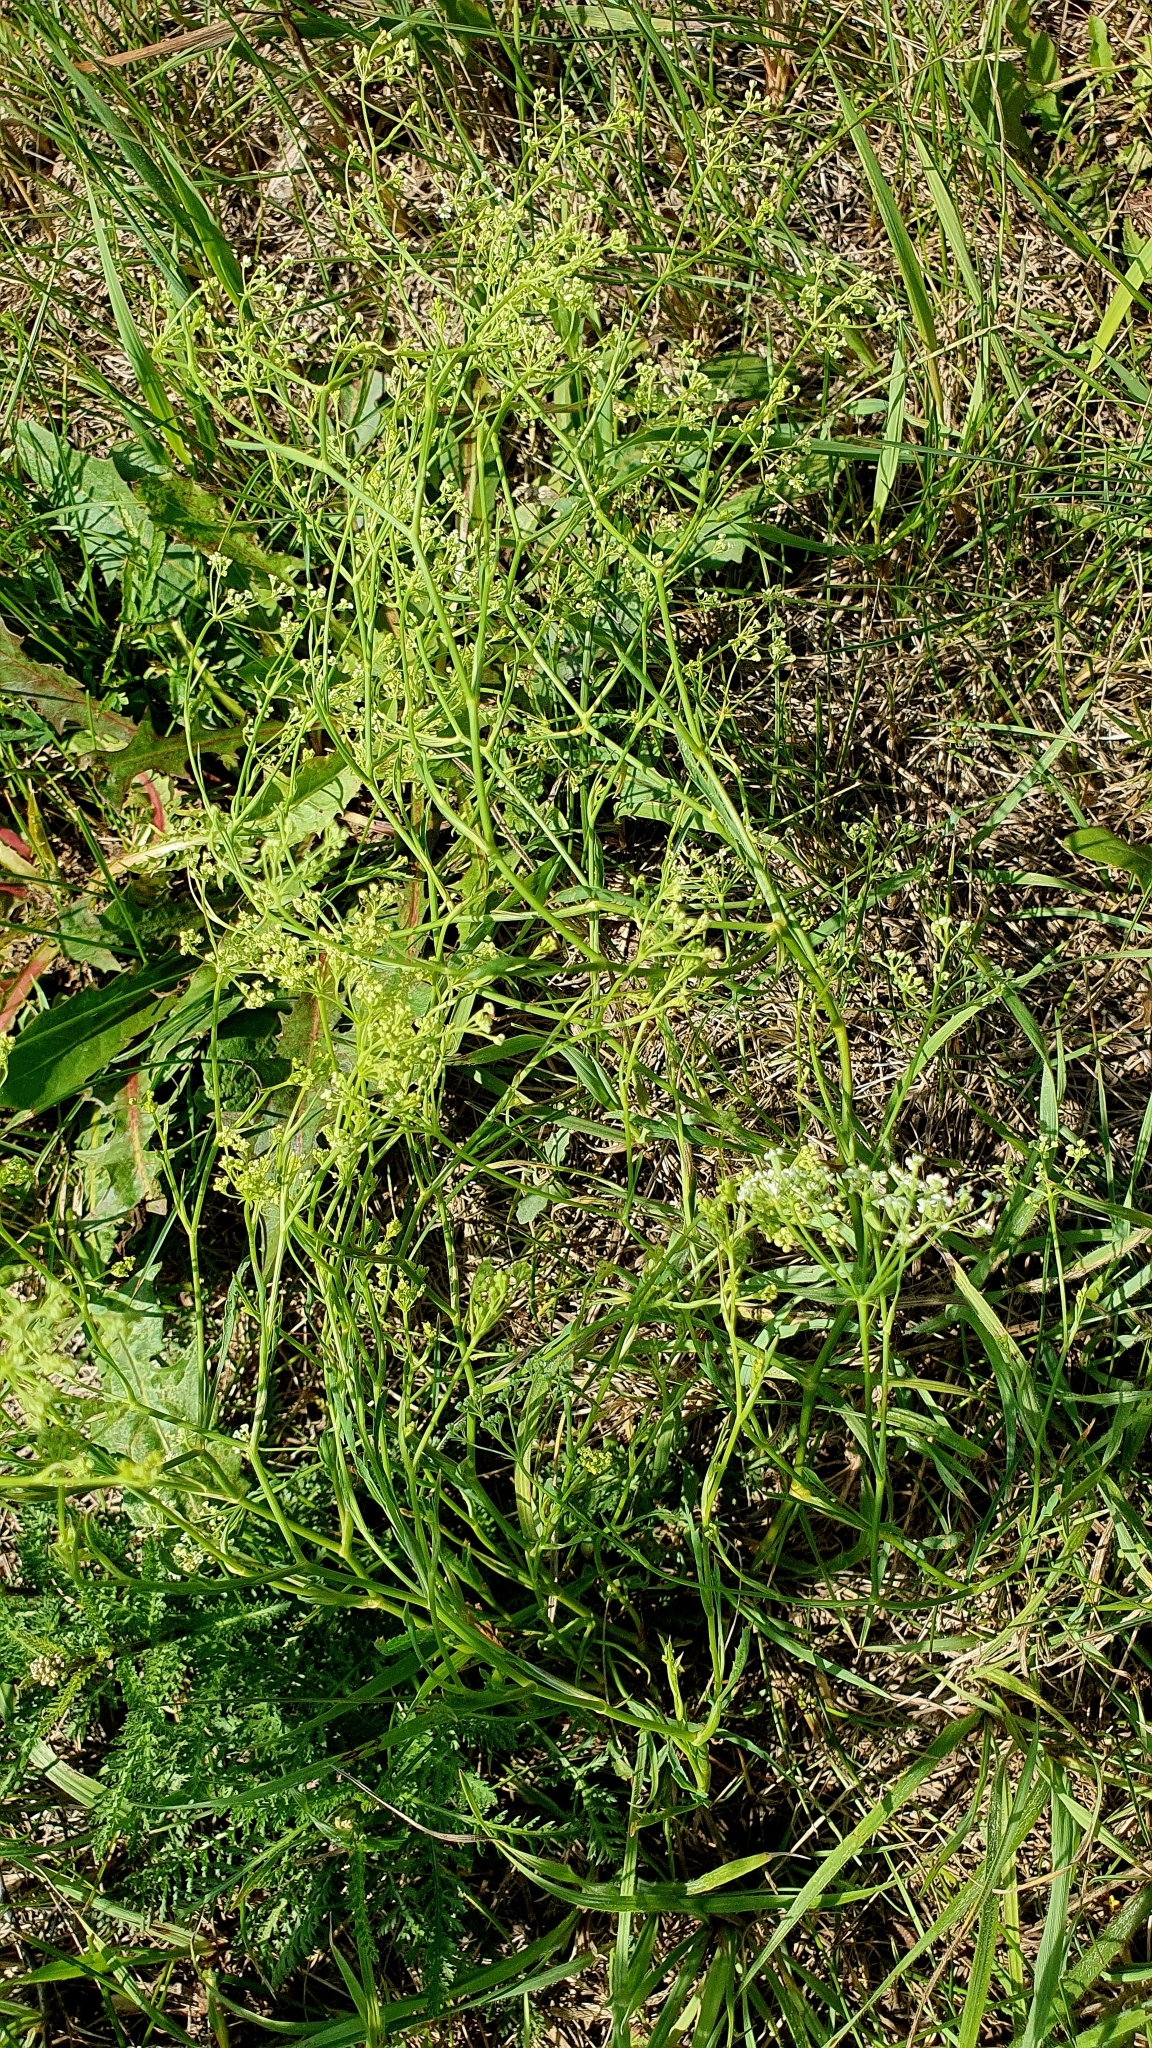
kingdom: Plantae
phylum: Tracheophyta
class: Magnoliopsida
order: Apiales
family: Apiaceae
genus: Falcaria
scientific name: Falcaria vulgaris
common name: Longleaf
